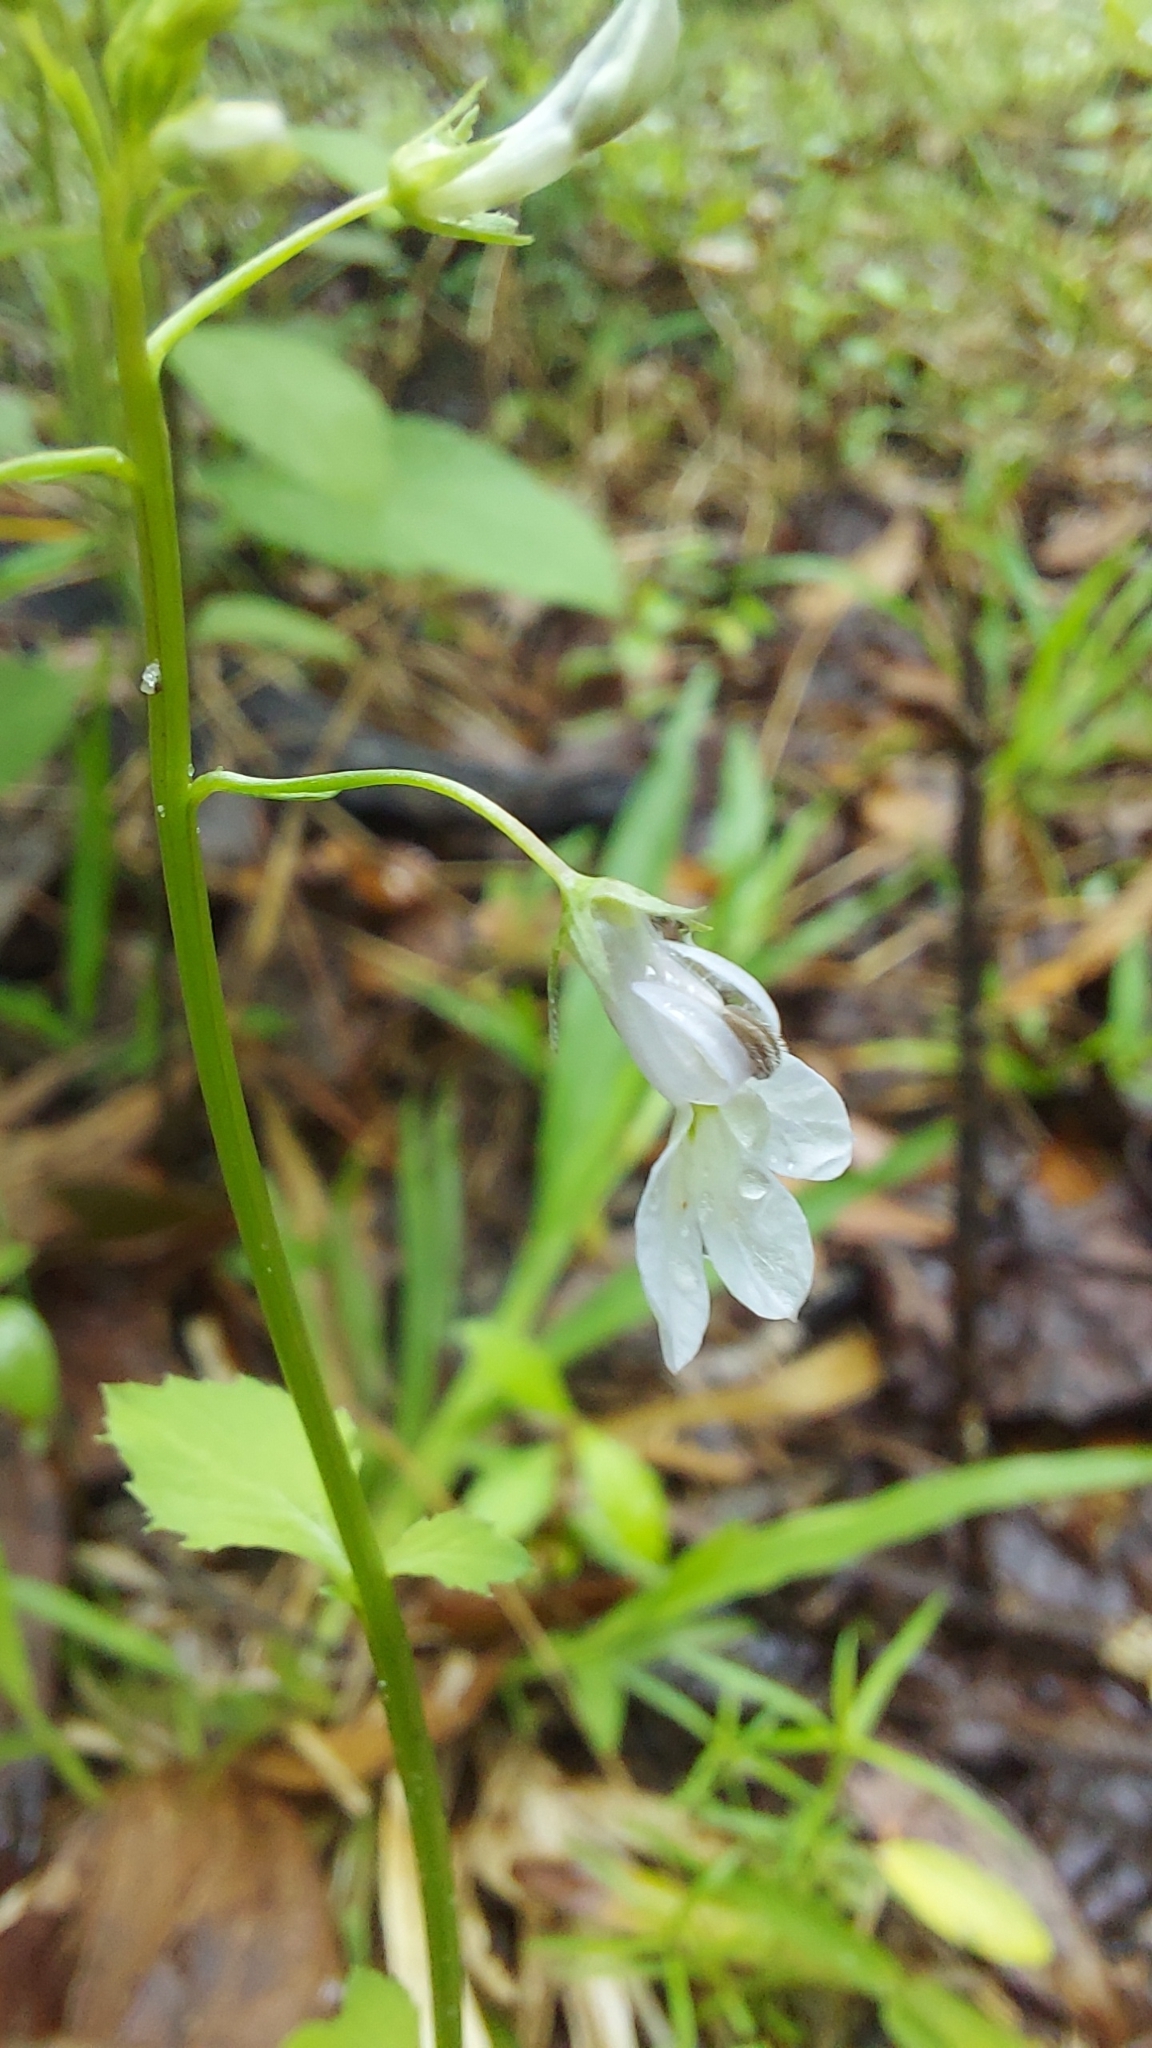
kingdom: Plantae
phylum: Tracheophyta
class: Magnoliopsida
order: Asterales
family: Campanulaceae
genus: Lobelia
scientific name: Lobelia homophylla
